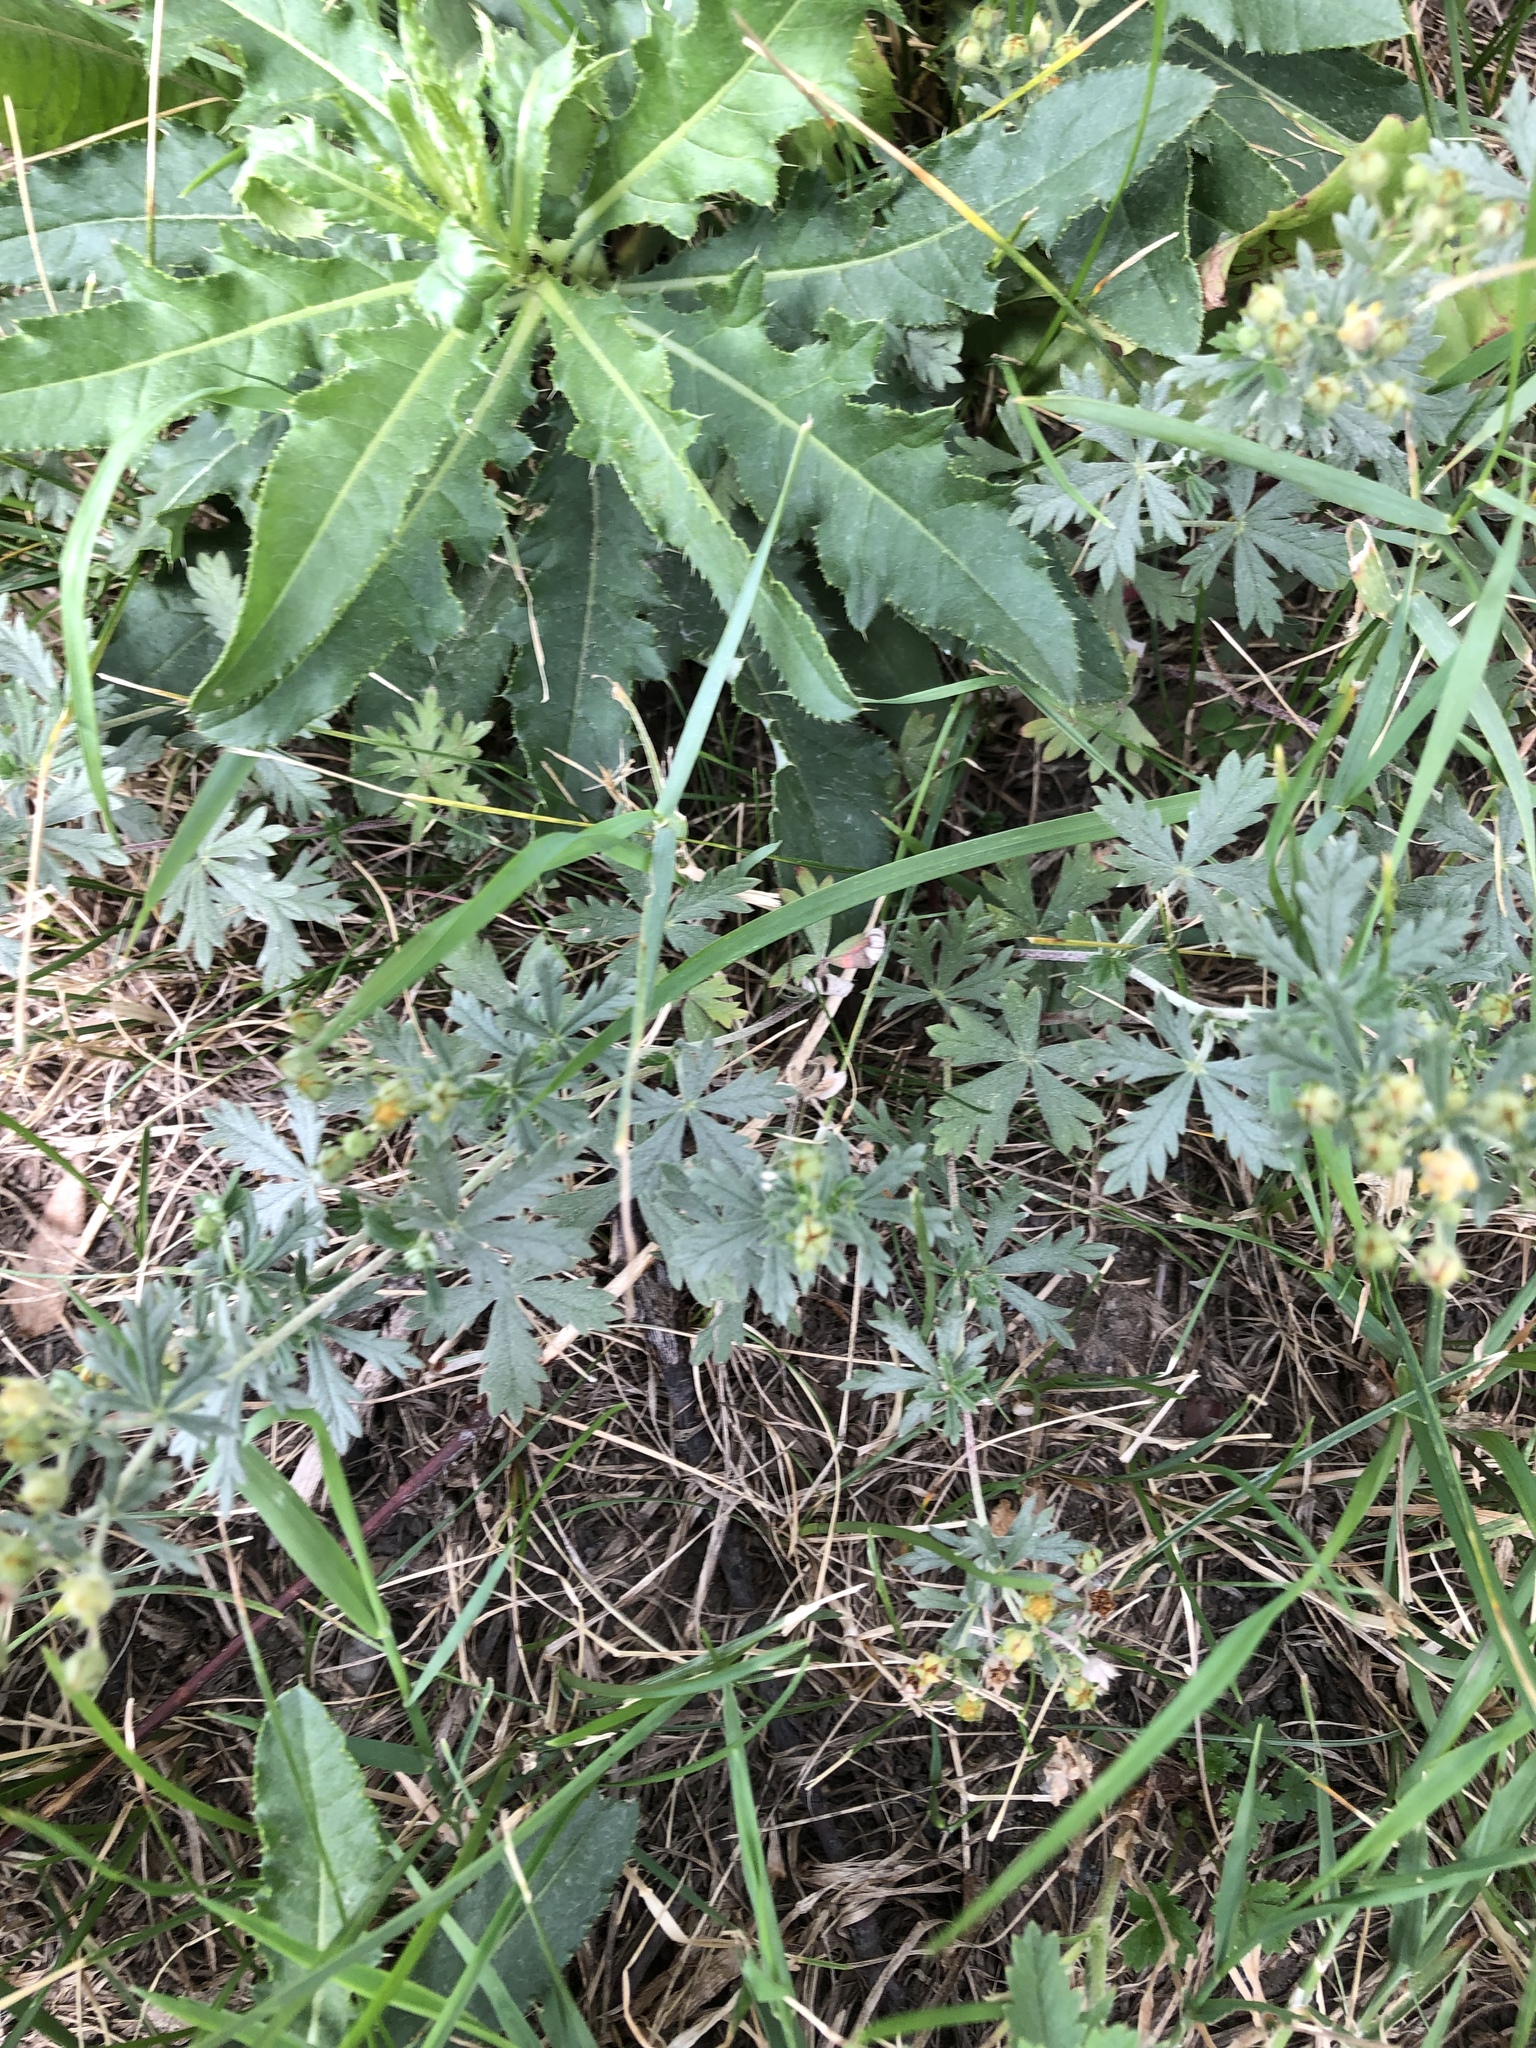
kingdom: Plantae
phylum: Tracheophyta
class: Magnoliopsida
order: Rosales
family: Rosaceae
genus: Potentilla
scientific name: Potentilla argentea
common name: Hoary cinquefoil
